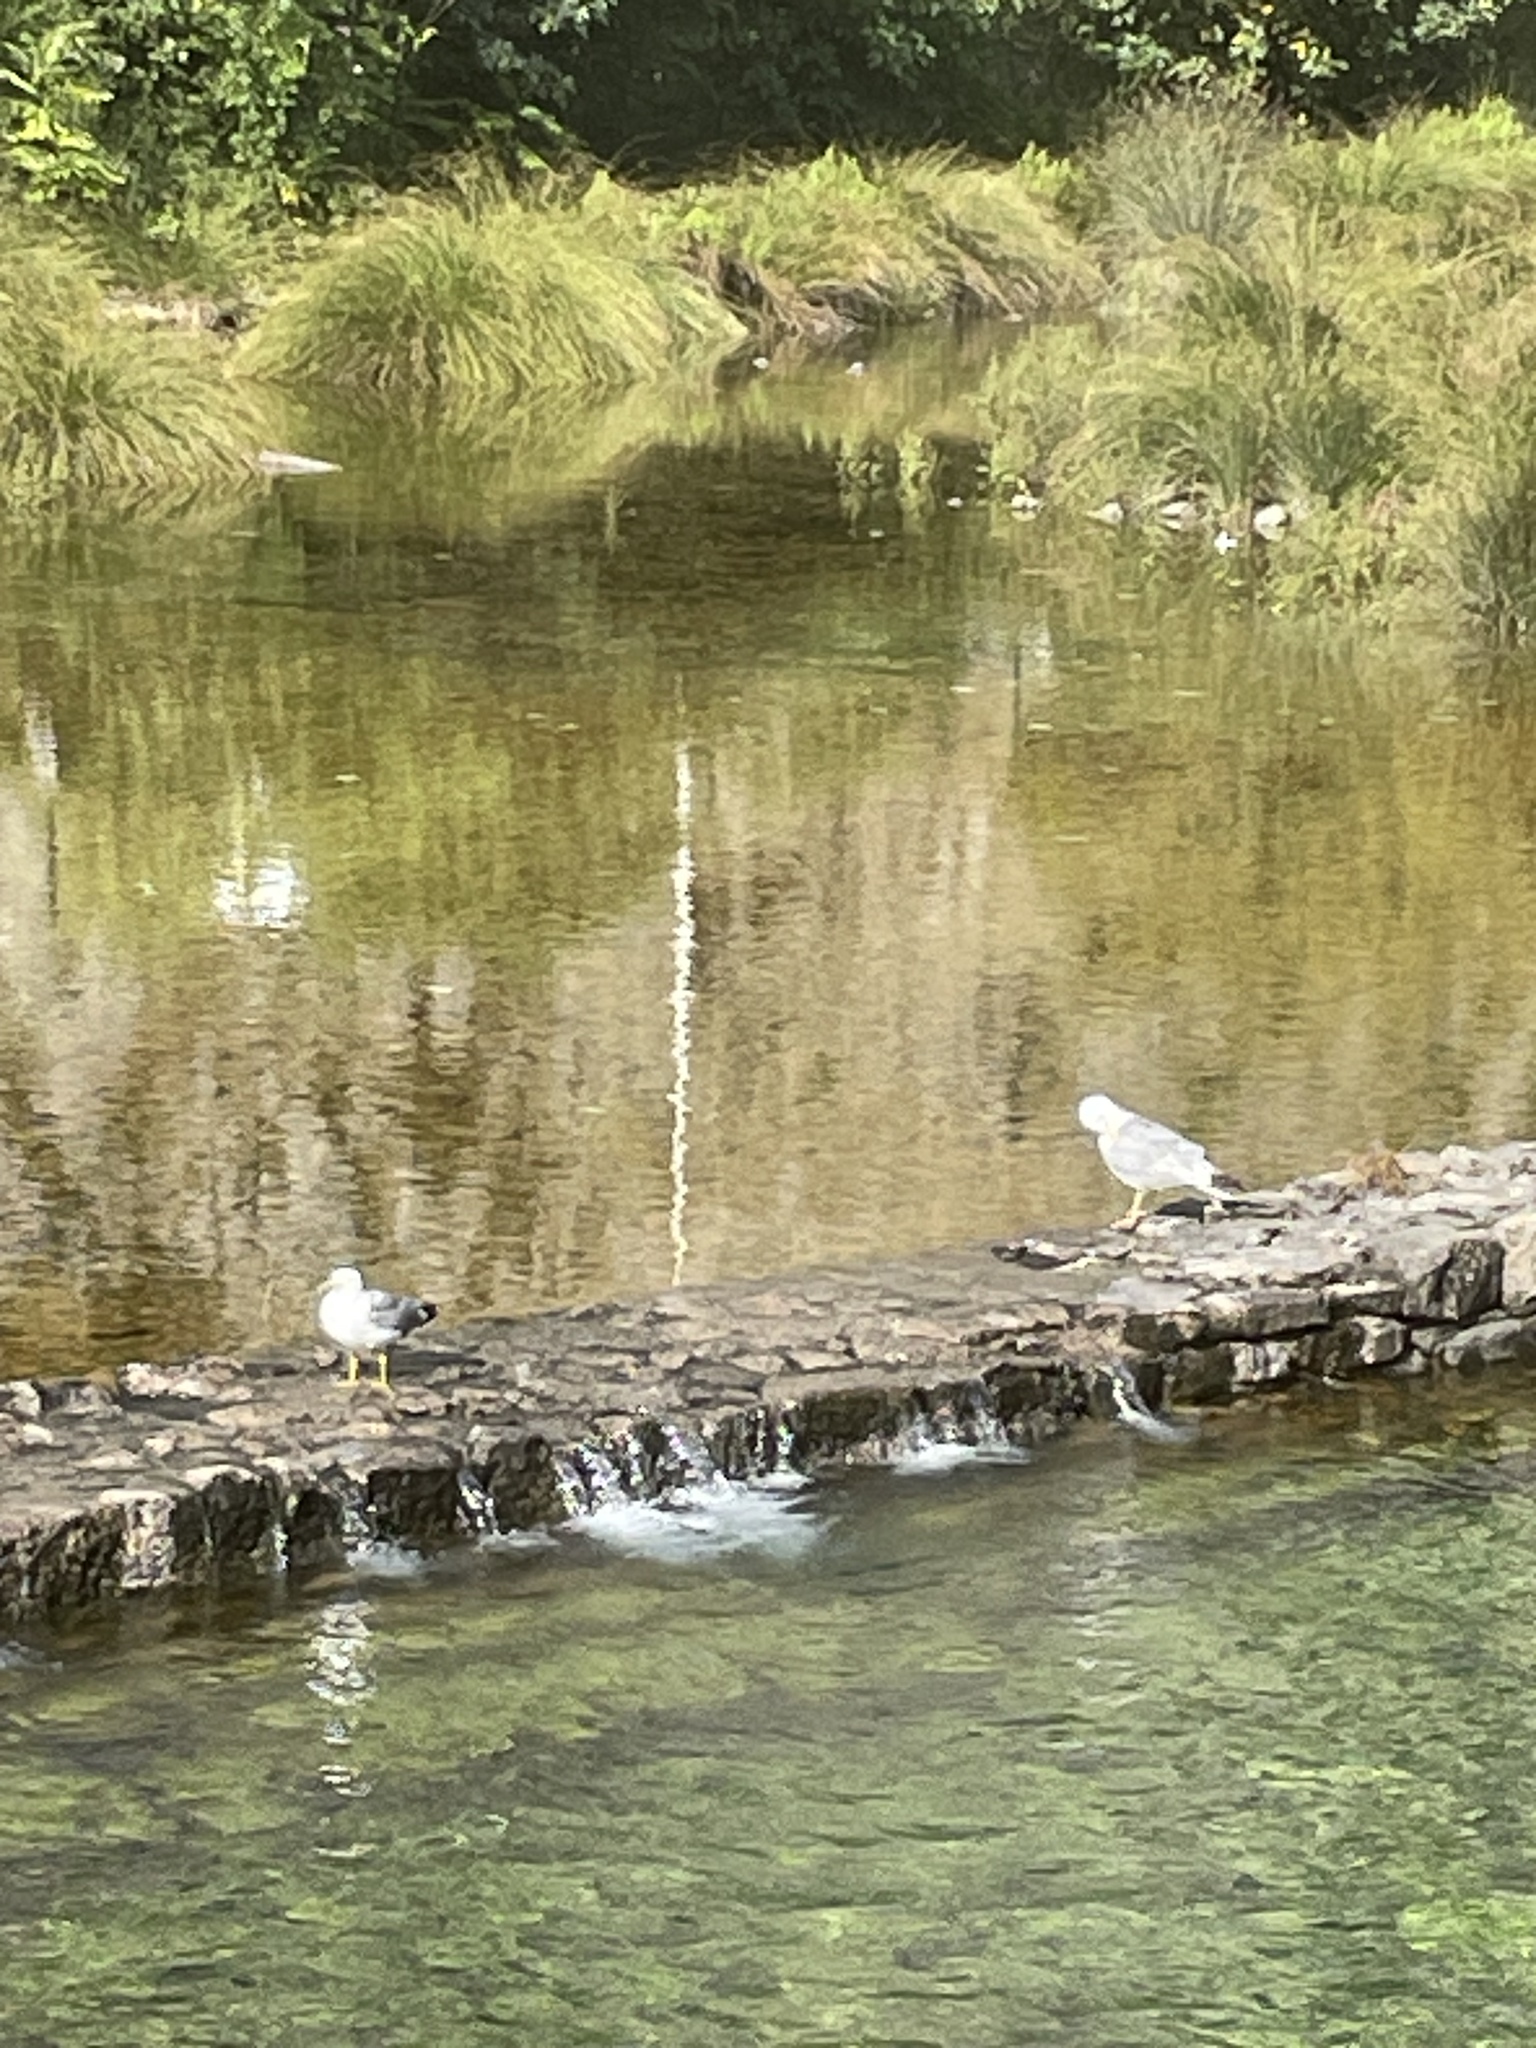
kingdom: Animalia
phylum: Chordata
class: Aves
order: Charadriiformes
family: Laridae
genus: Larus
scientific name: Larus michahellis
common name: Yellow-legged gull
